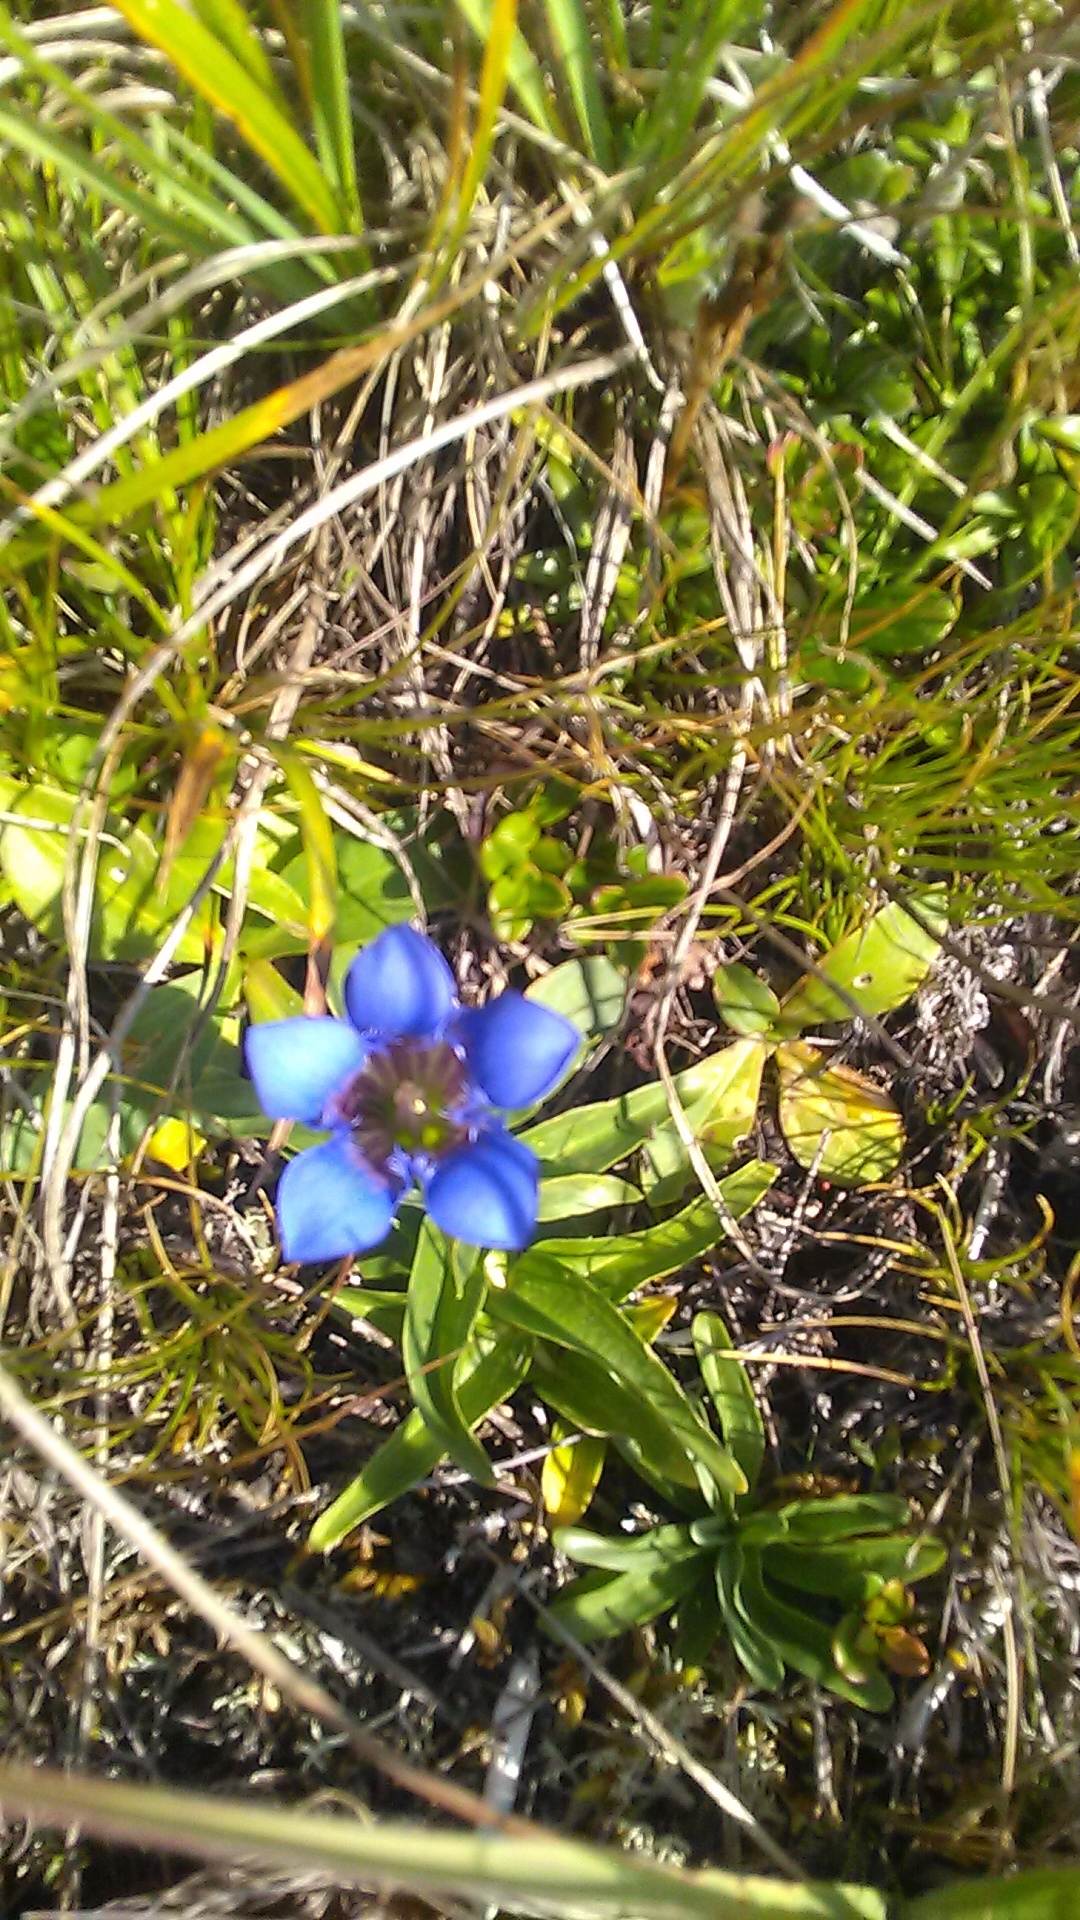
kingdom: Plantae
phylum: Tracheophyta
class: Magnoliopsida
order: Gentianales
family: Gentianaceae
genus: Gentiana
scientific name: Gentiana septemfida
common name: Crested gentian
